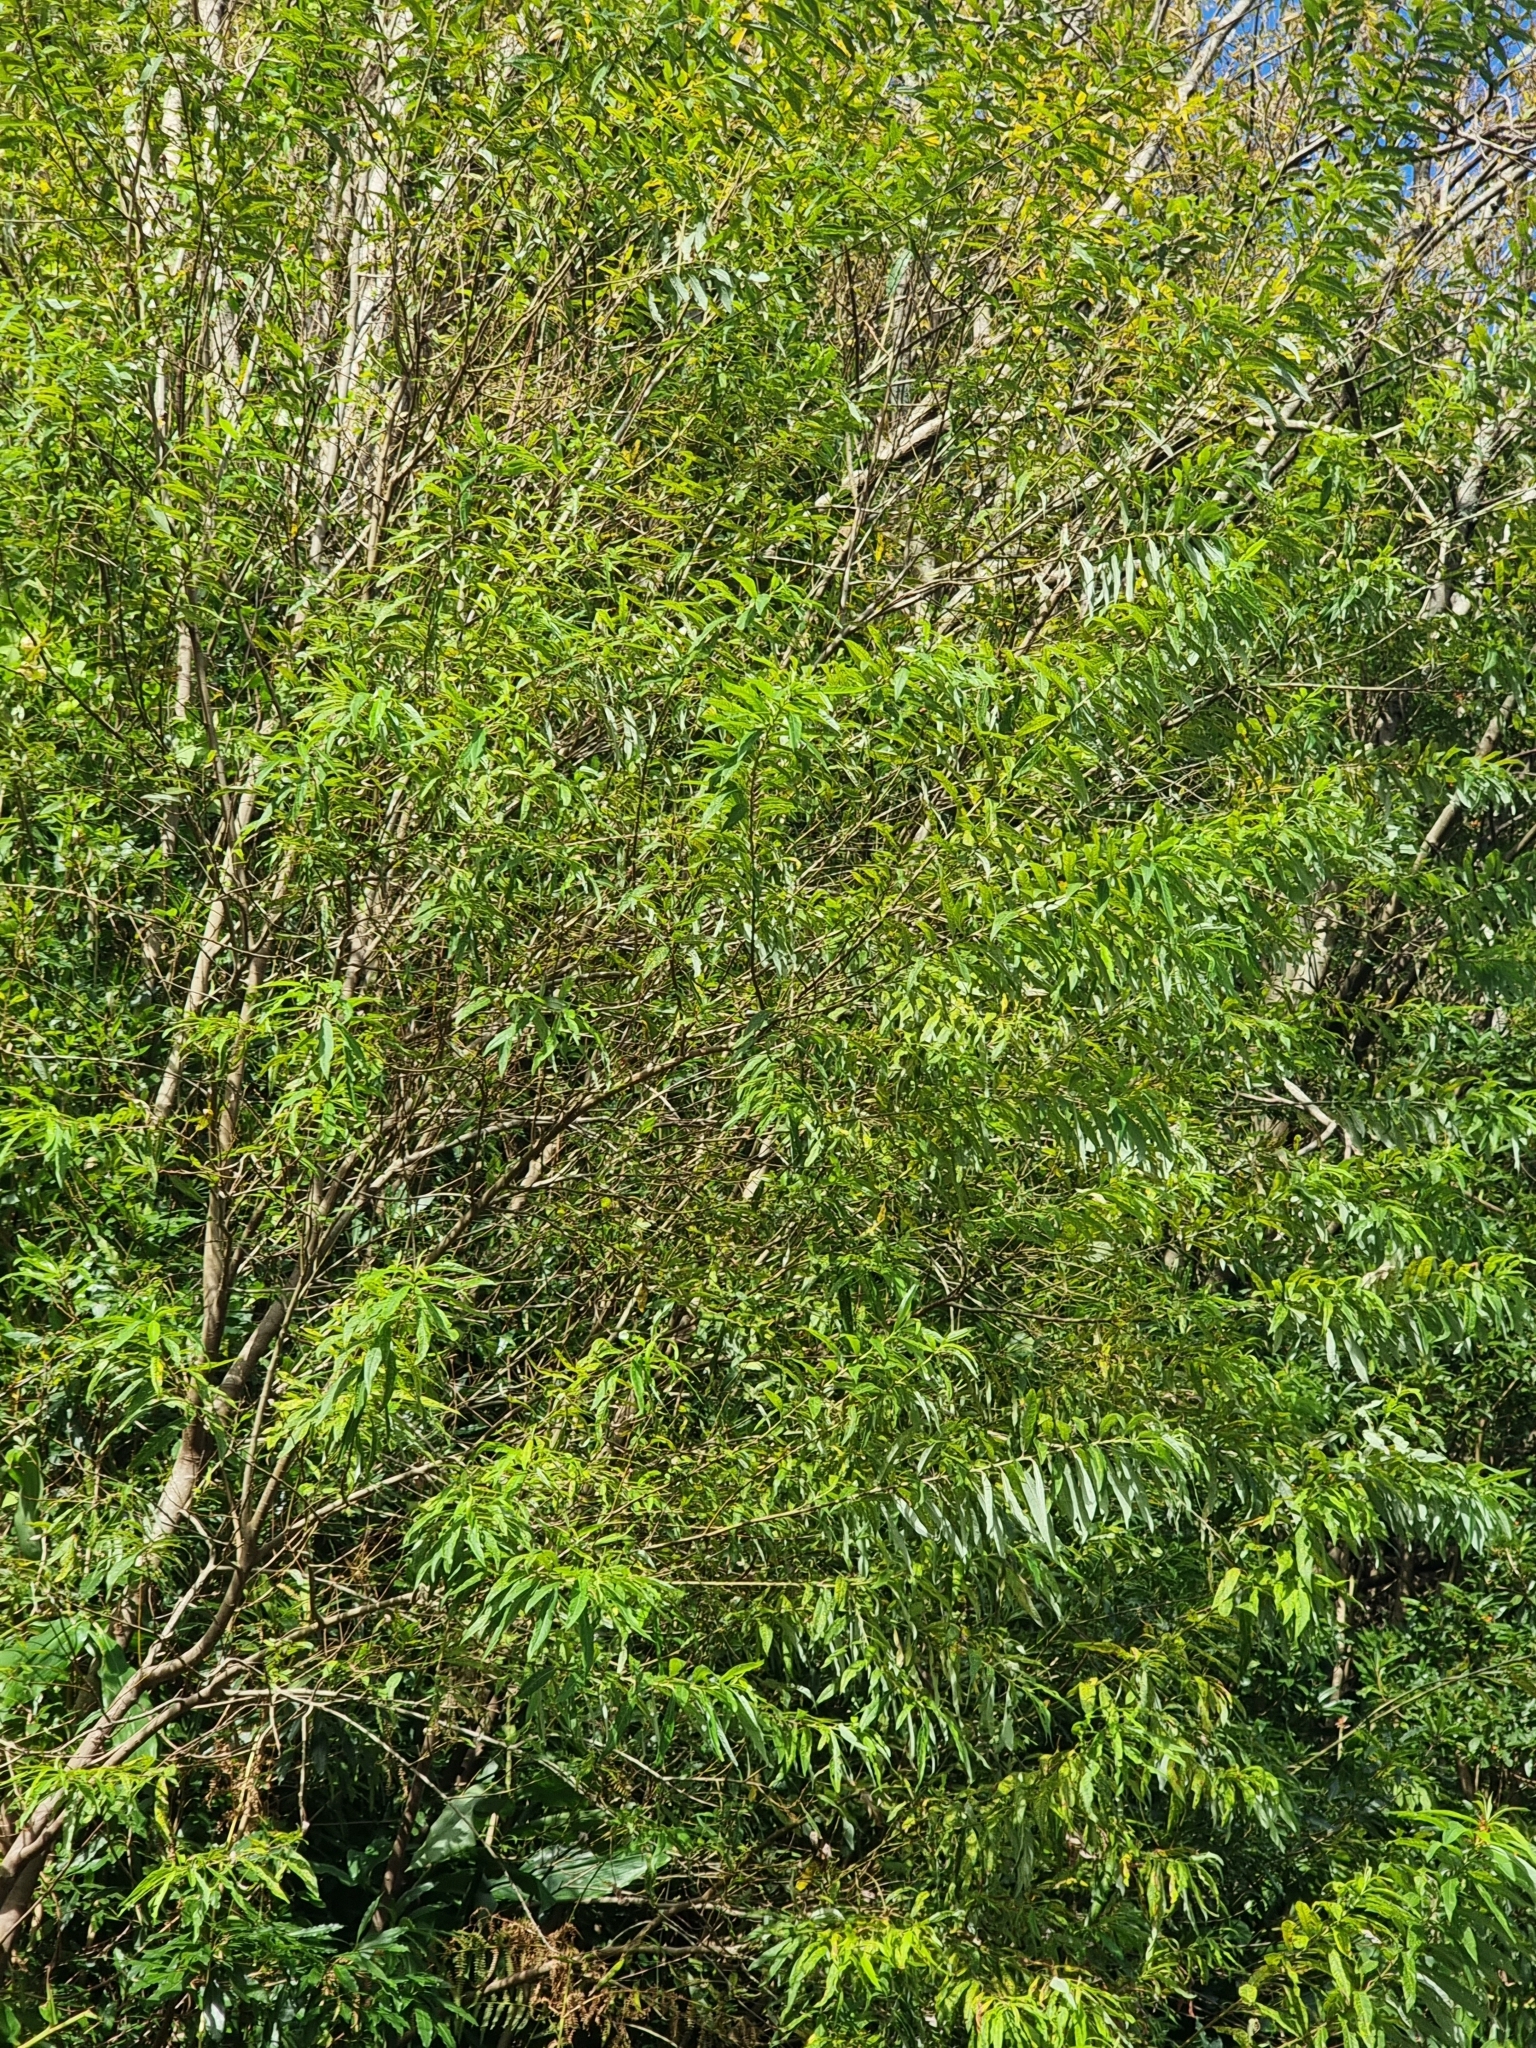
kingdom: Plantae
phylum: Tracheophyta
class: Magnoliopsida
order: Malpighiales
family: Salicaceae
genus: Salix
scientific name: Salix canariensis
